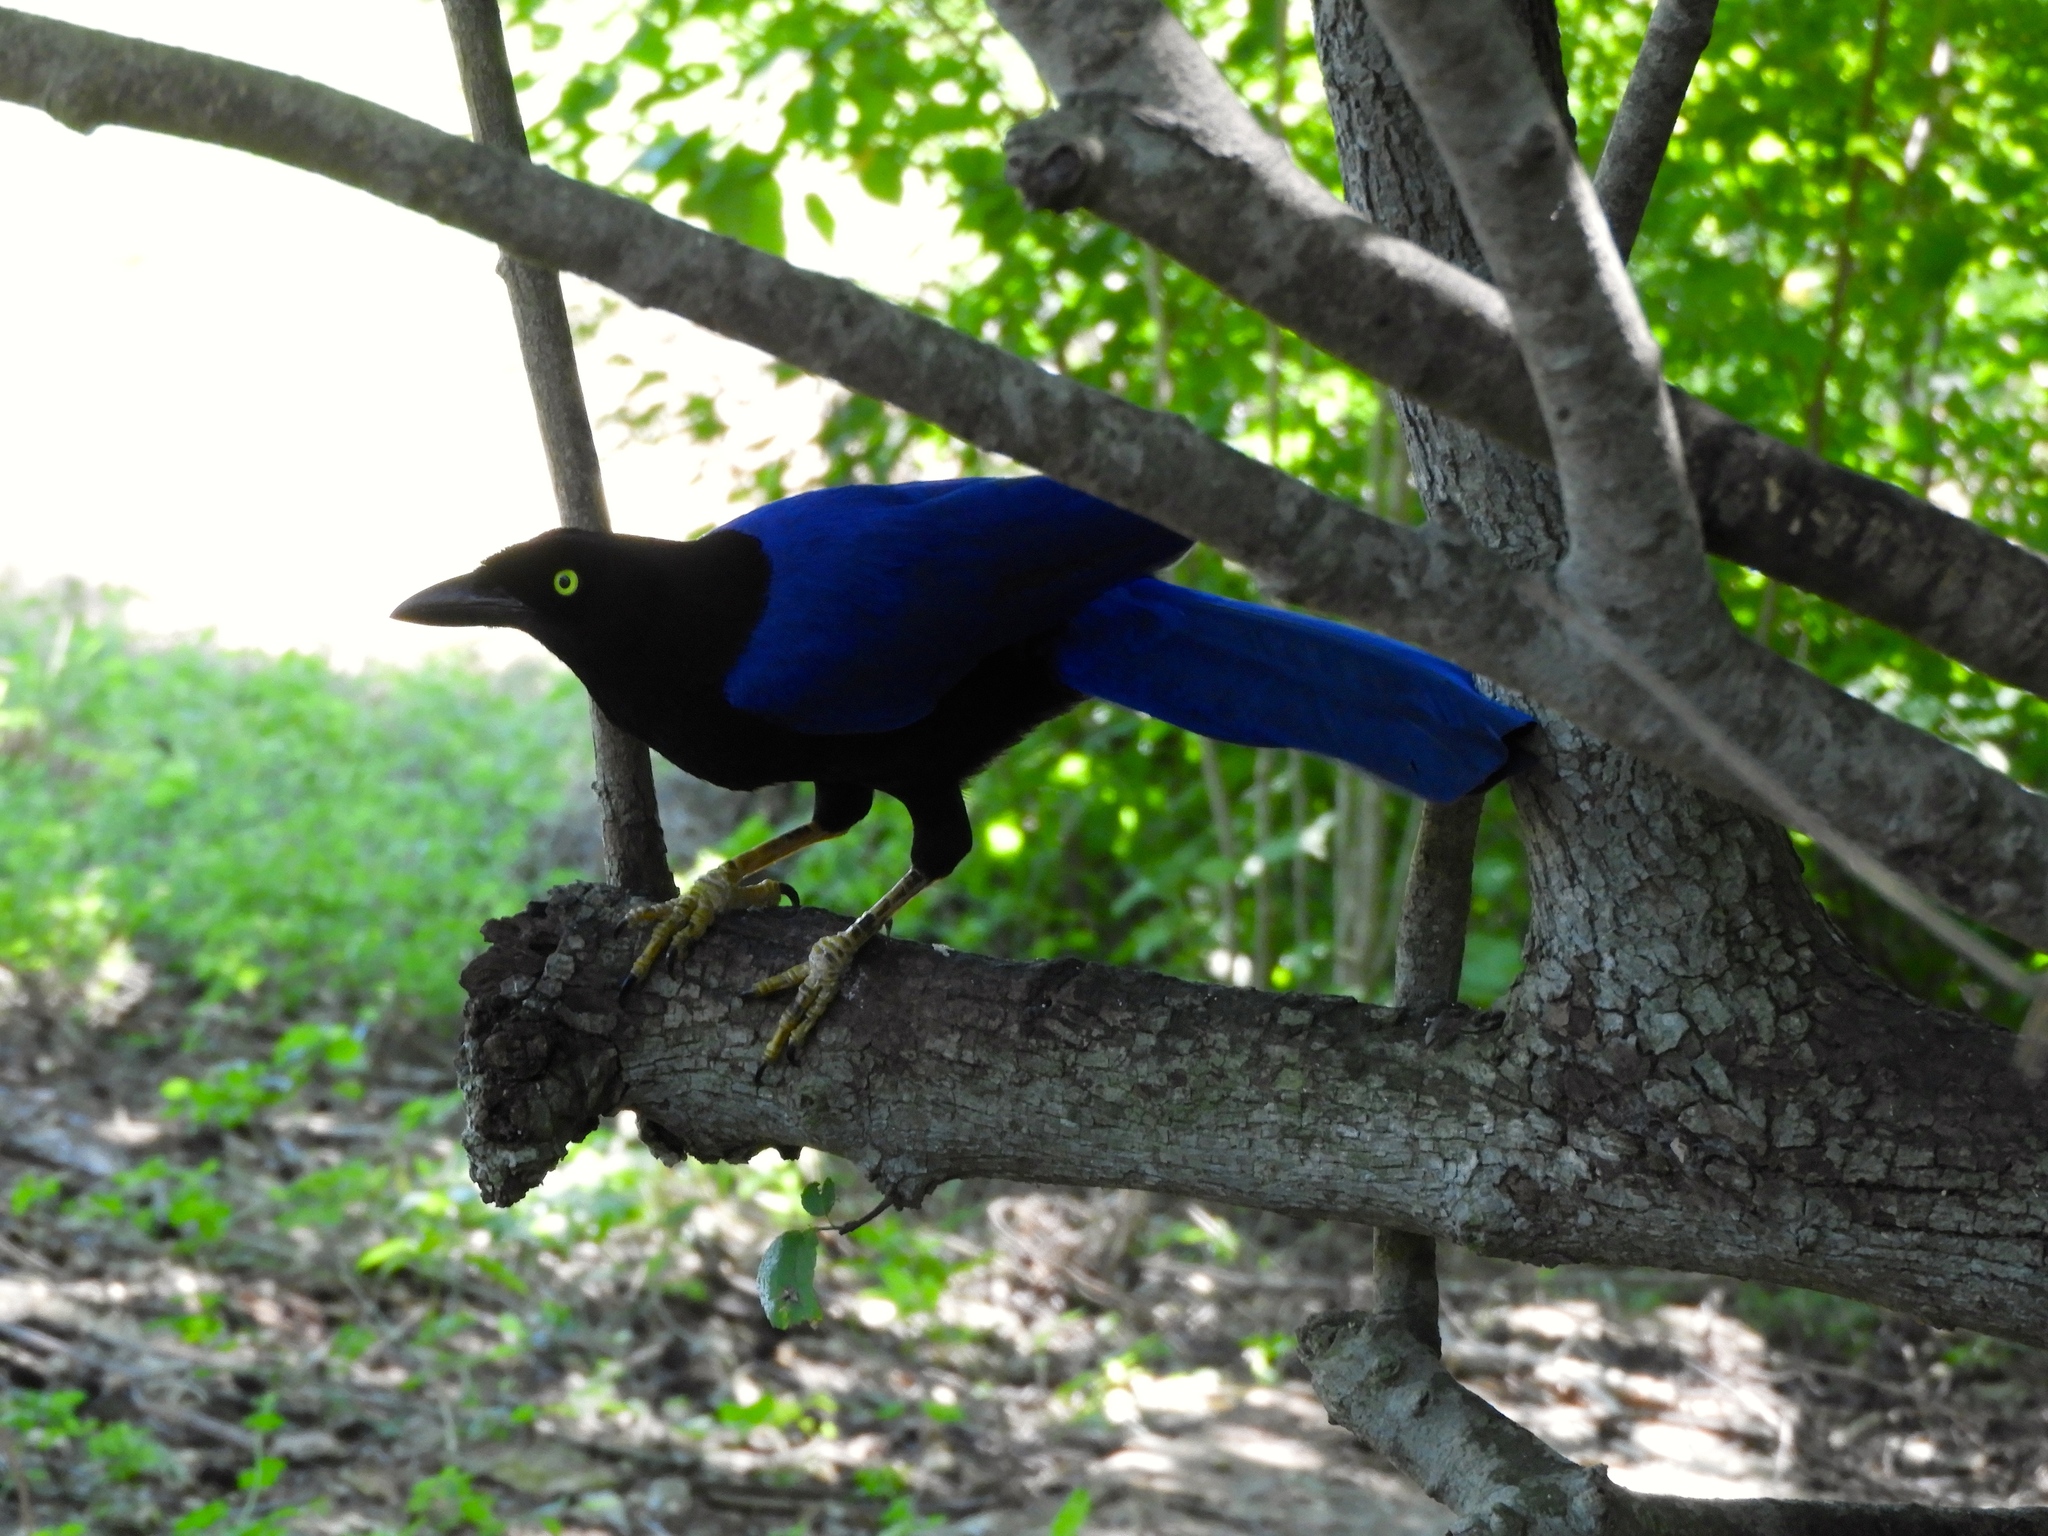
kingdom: Animalia
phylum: Chordata
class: Aves
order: Passeriformes
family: Corvidae
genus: Cyanocorax
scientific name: Cyanocorax beecheii
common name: Purplish-backed jay
